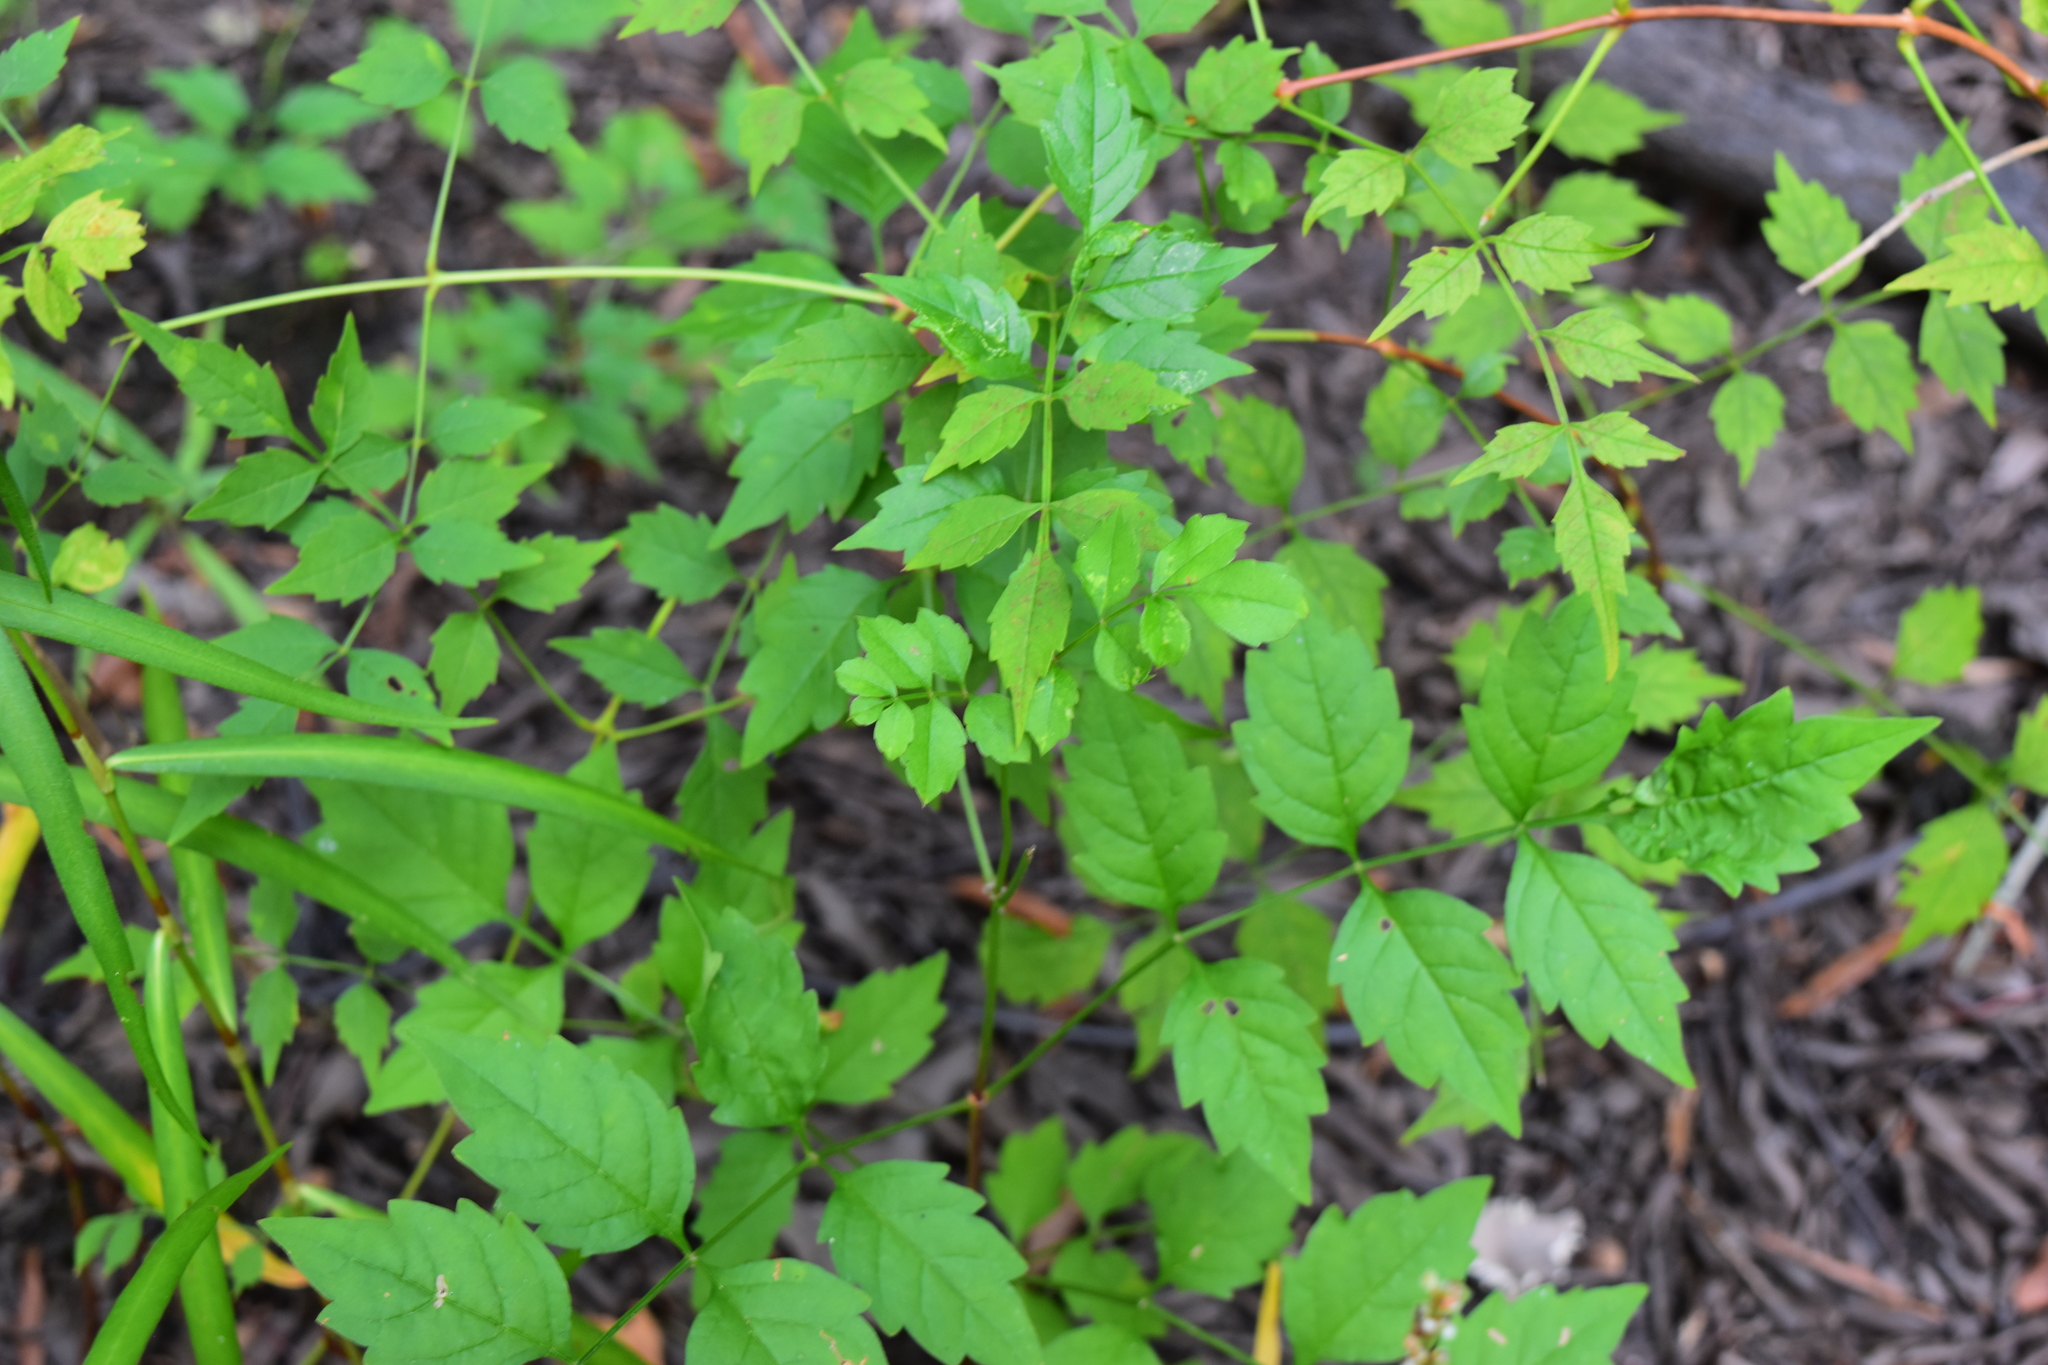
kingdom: Plantae
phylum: Tracheophyta
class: Magnoliopsida
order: Lamiales
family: Bignoniaceae
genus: Campsis
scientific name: Campsis radicans
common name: Trumpet-creeper
